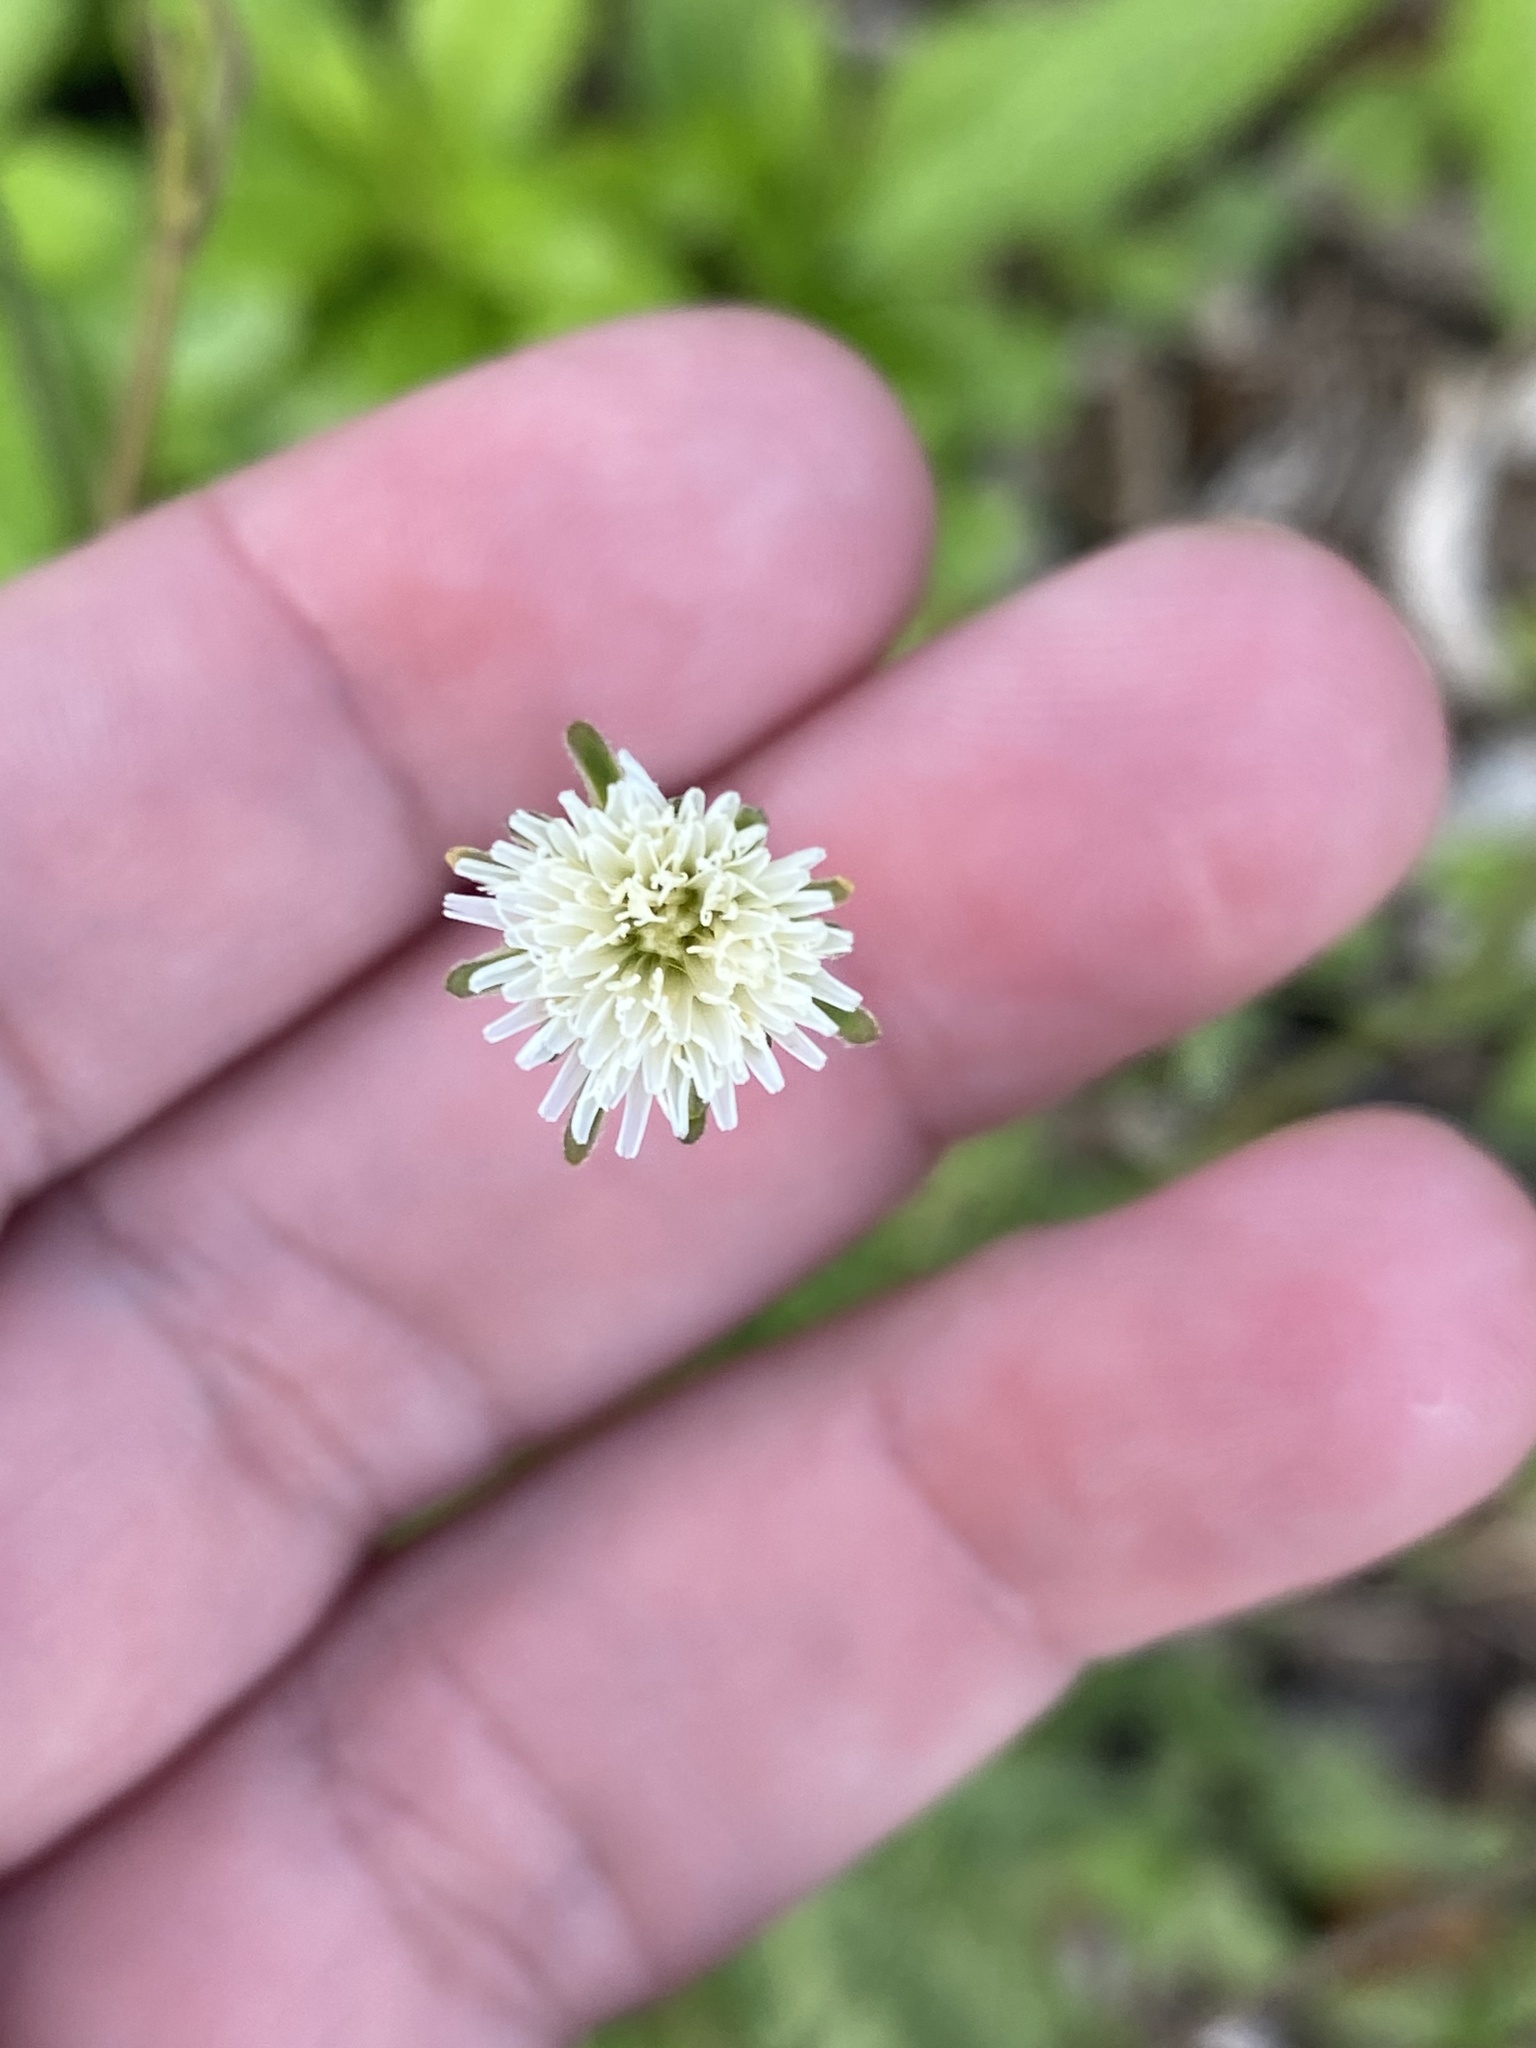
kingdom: Plantae
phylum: Tracheophyta
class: Magnoliopsida
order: Asterales
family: Asteraceae
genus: Hypochaeris
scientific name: Hypochaeris albiflora
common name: White flatweed
